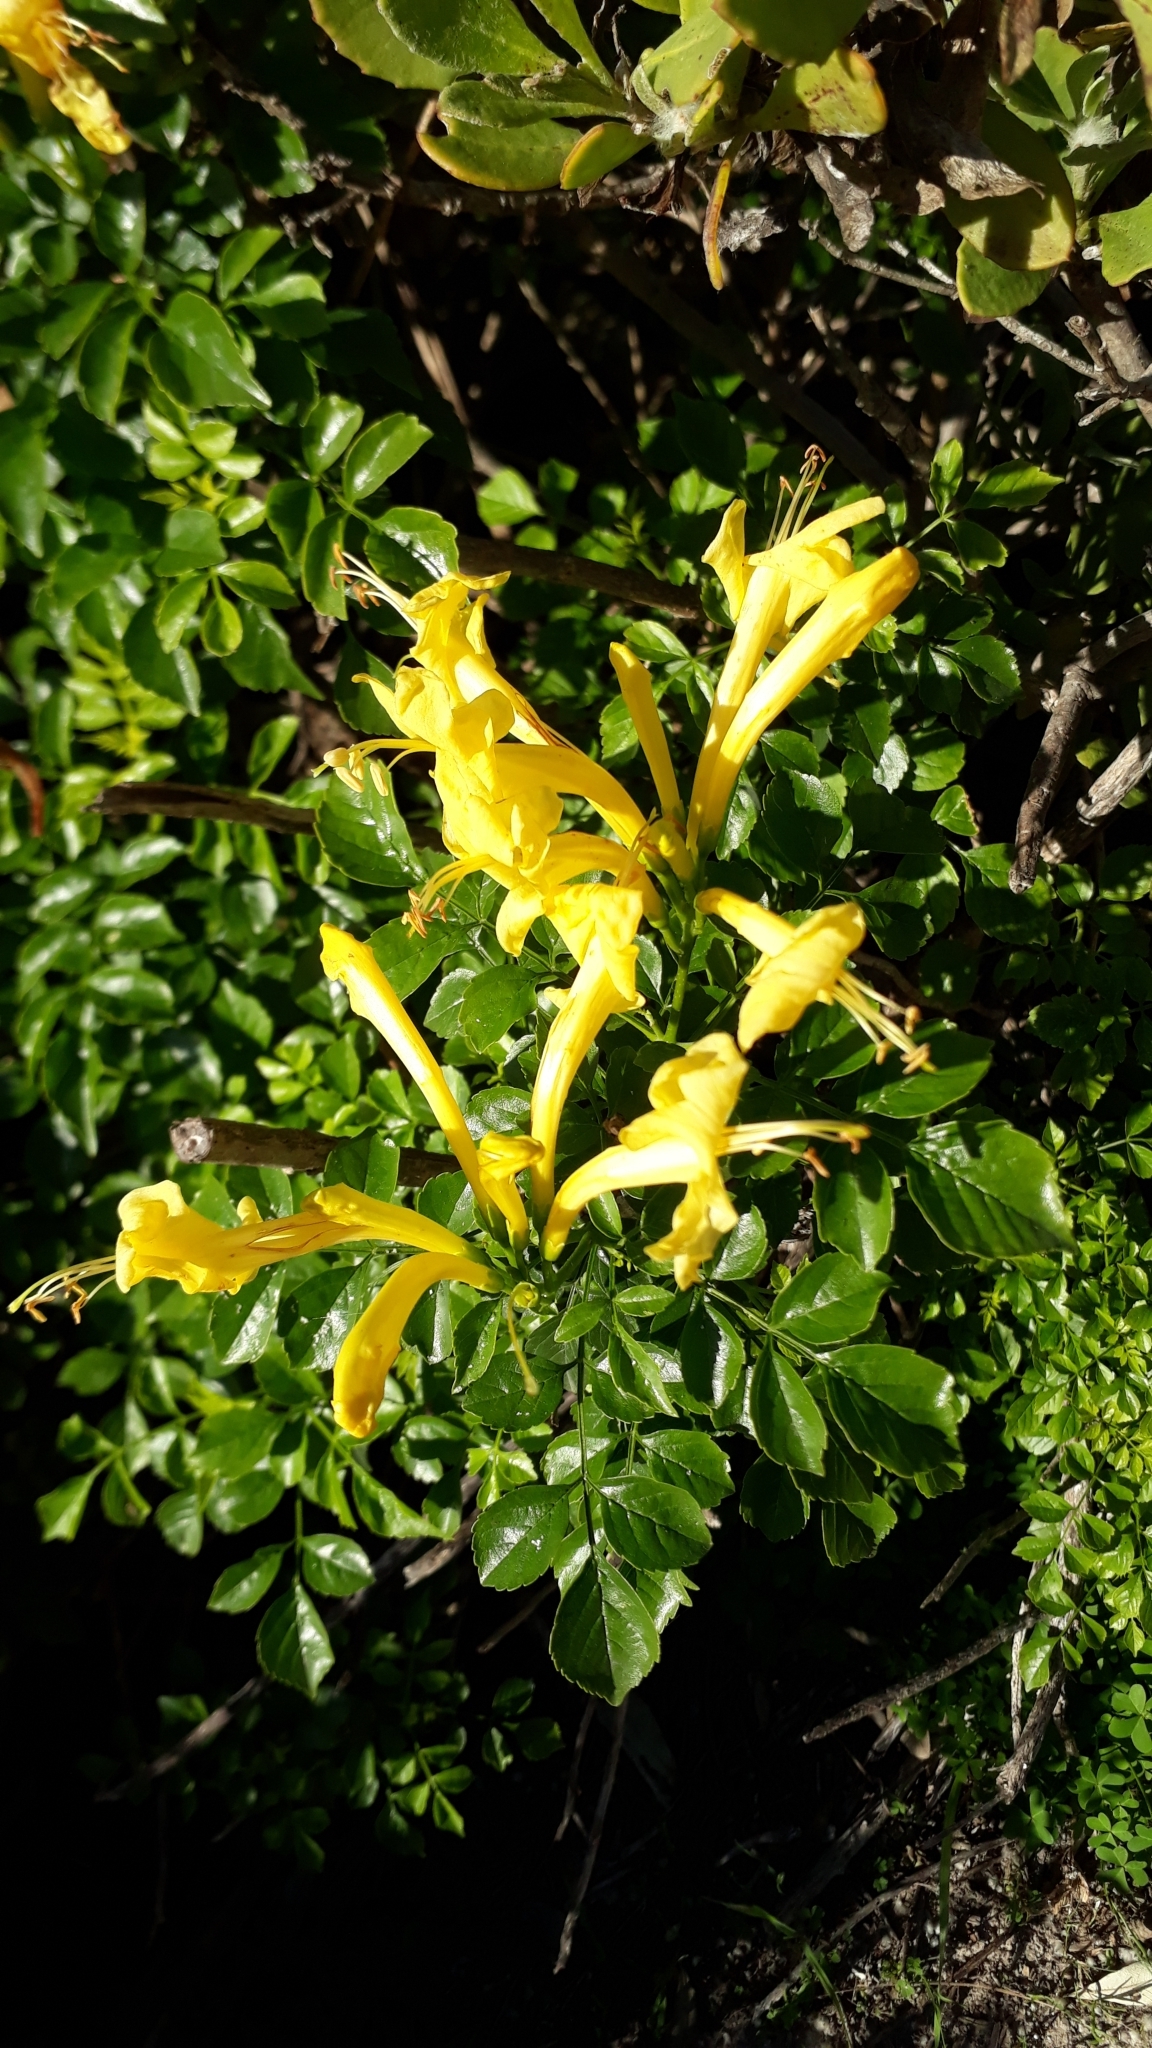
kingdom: Plantae
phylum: Tracheophyta
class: Magnoliopsida
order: Lamiales
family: Bignoniaceae
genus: Tecomaria
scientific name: Tecomaria capensis
